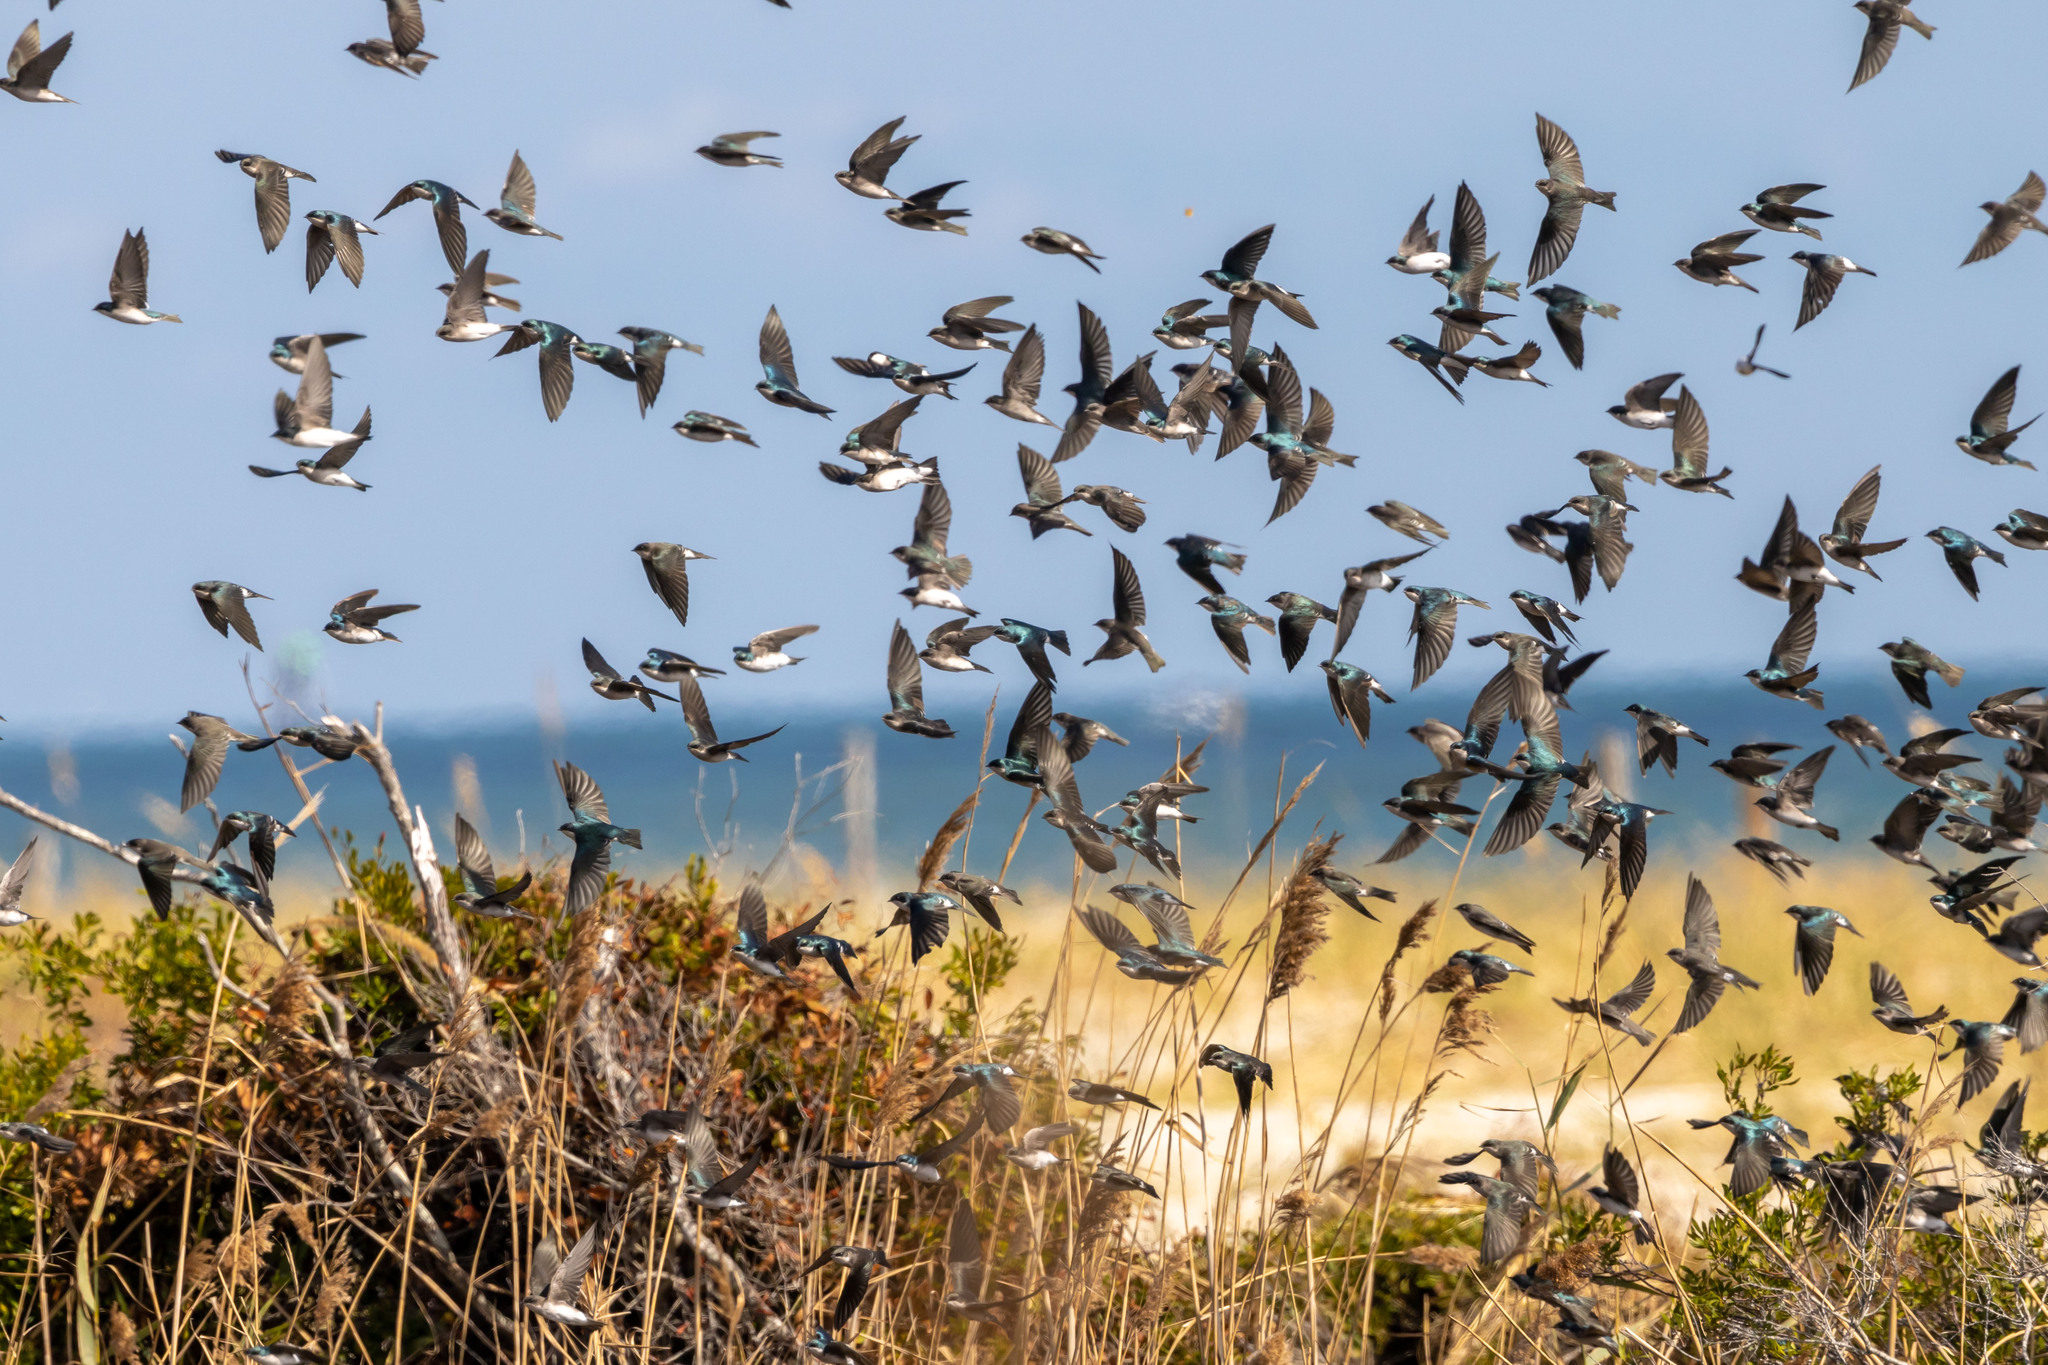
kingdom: Animalia
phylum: Chordata
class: Aves
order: Passeriformes
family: Hirundinidae
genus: Tachycineta
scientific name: Tachycineta bicolor
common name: Tree swallow
